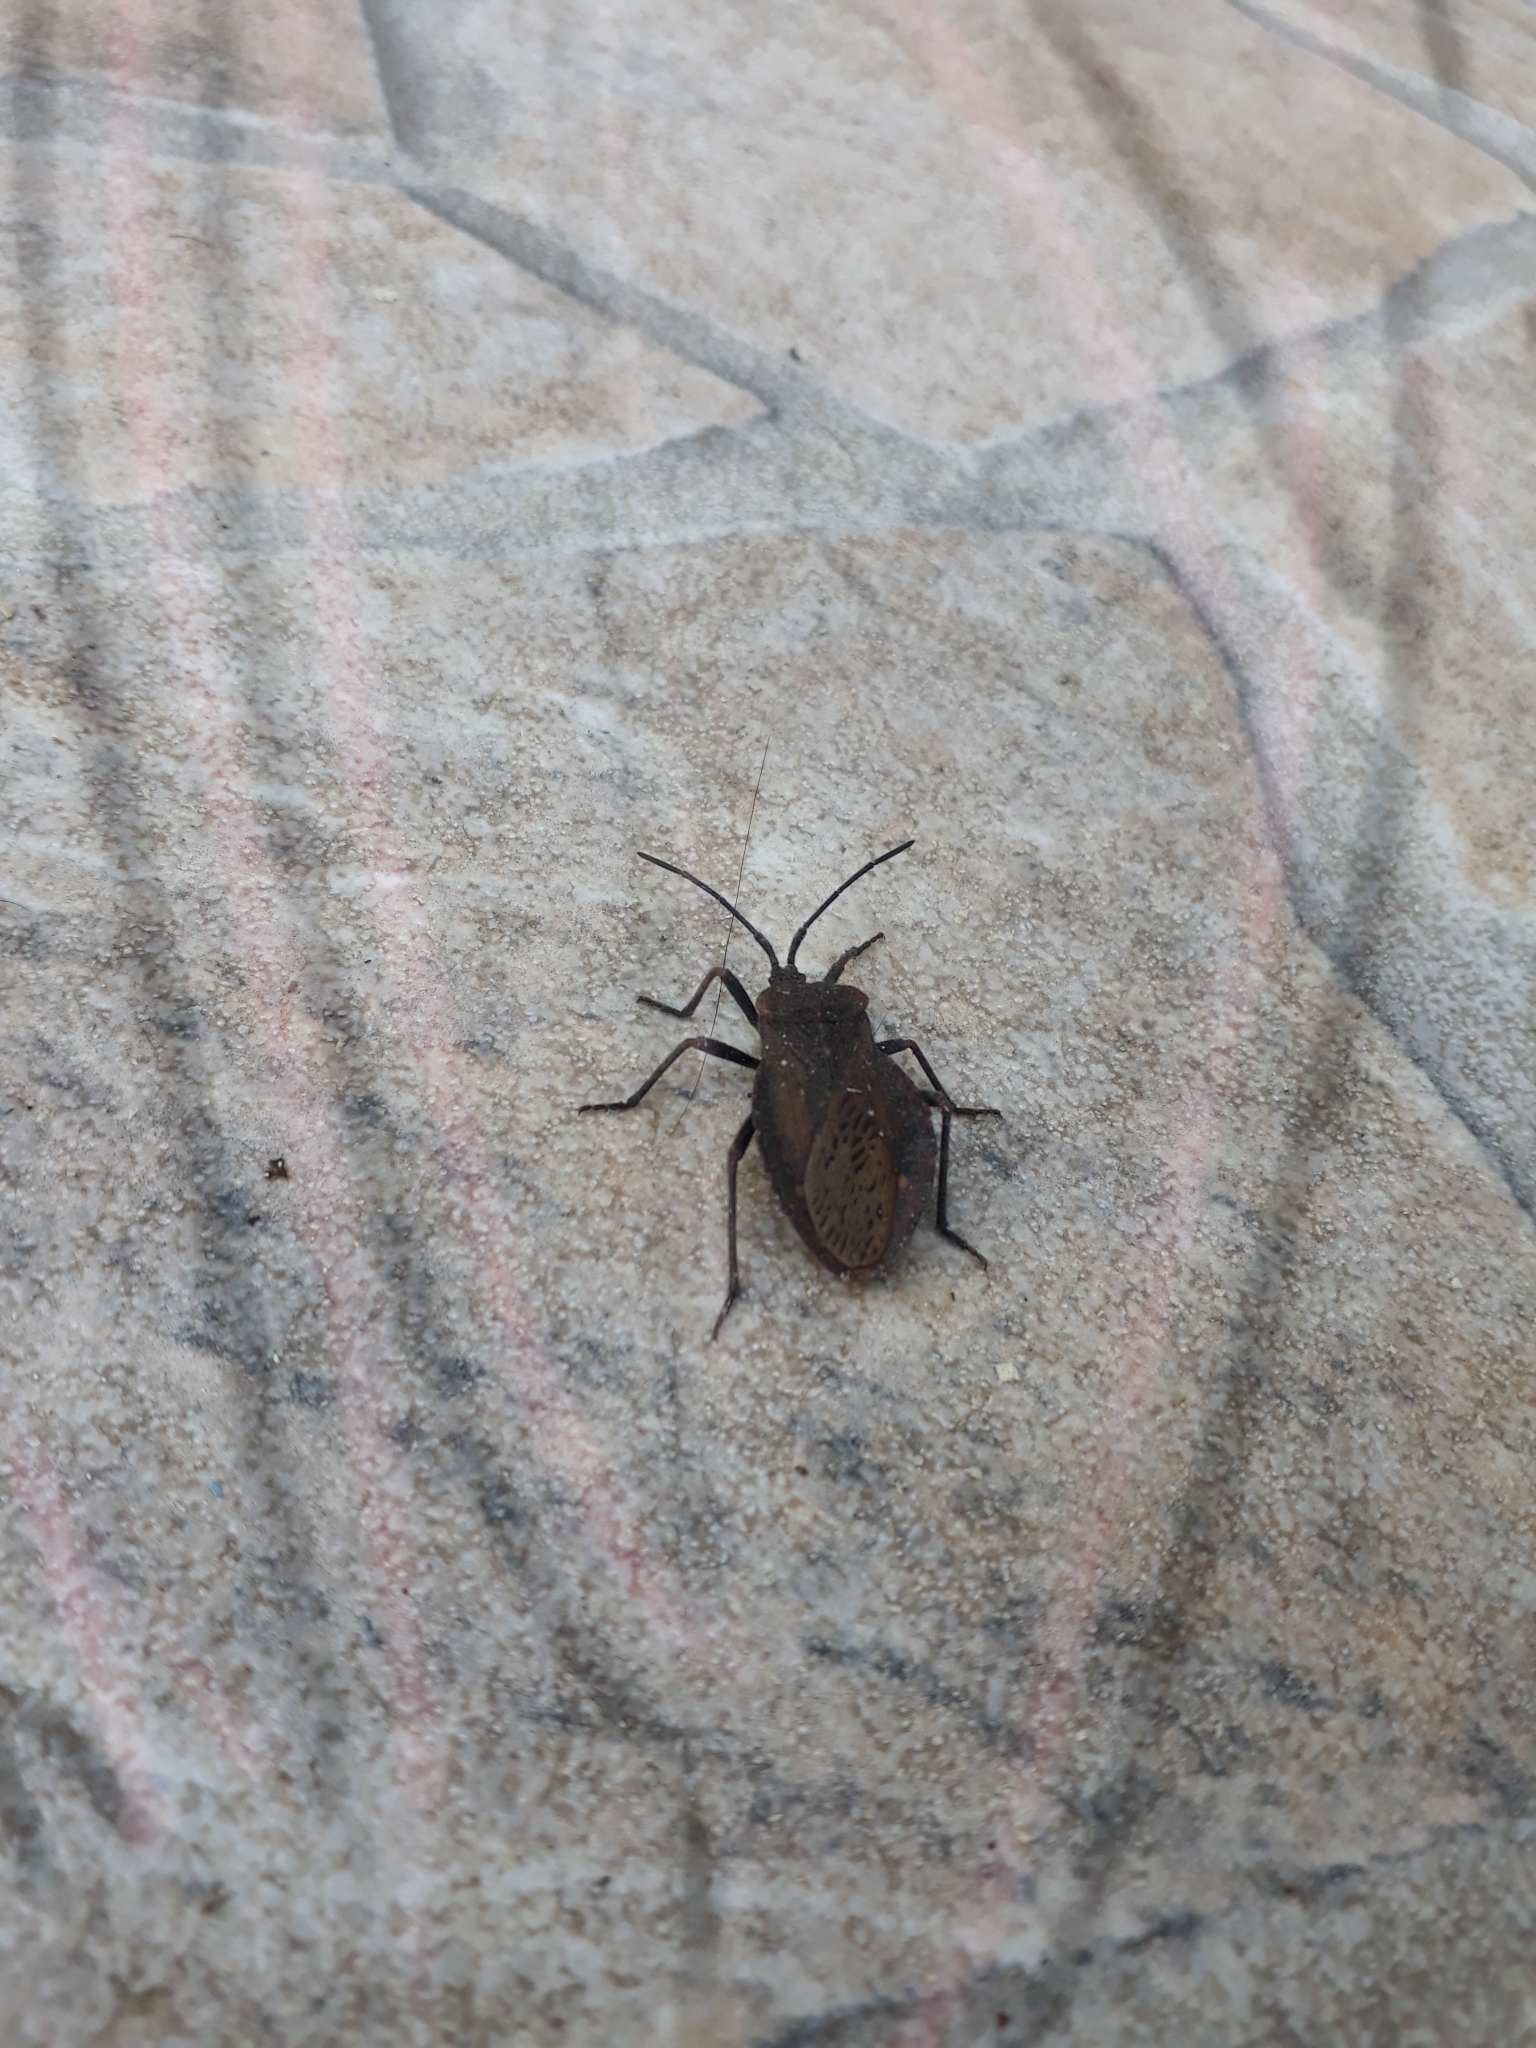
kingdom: Animalia
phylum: Arthropoda
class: Insecta
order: Hemiptera
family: Coreidae
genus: Spartocera
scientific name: Spartocera batatas
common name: Giant sweetpotato bug
